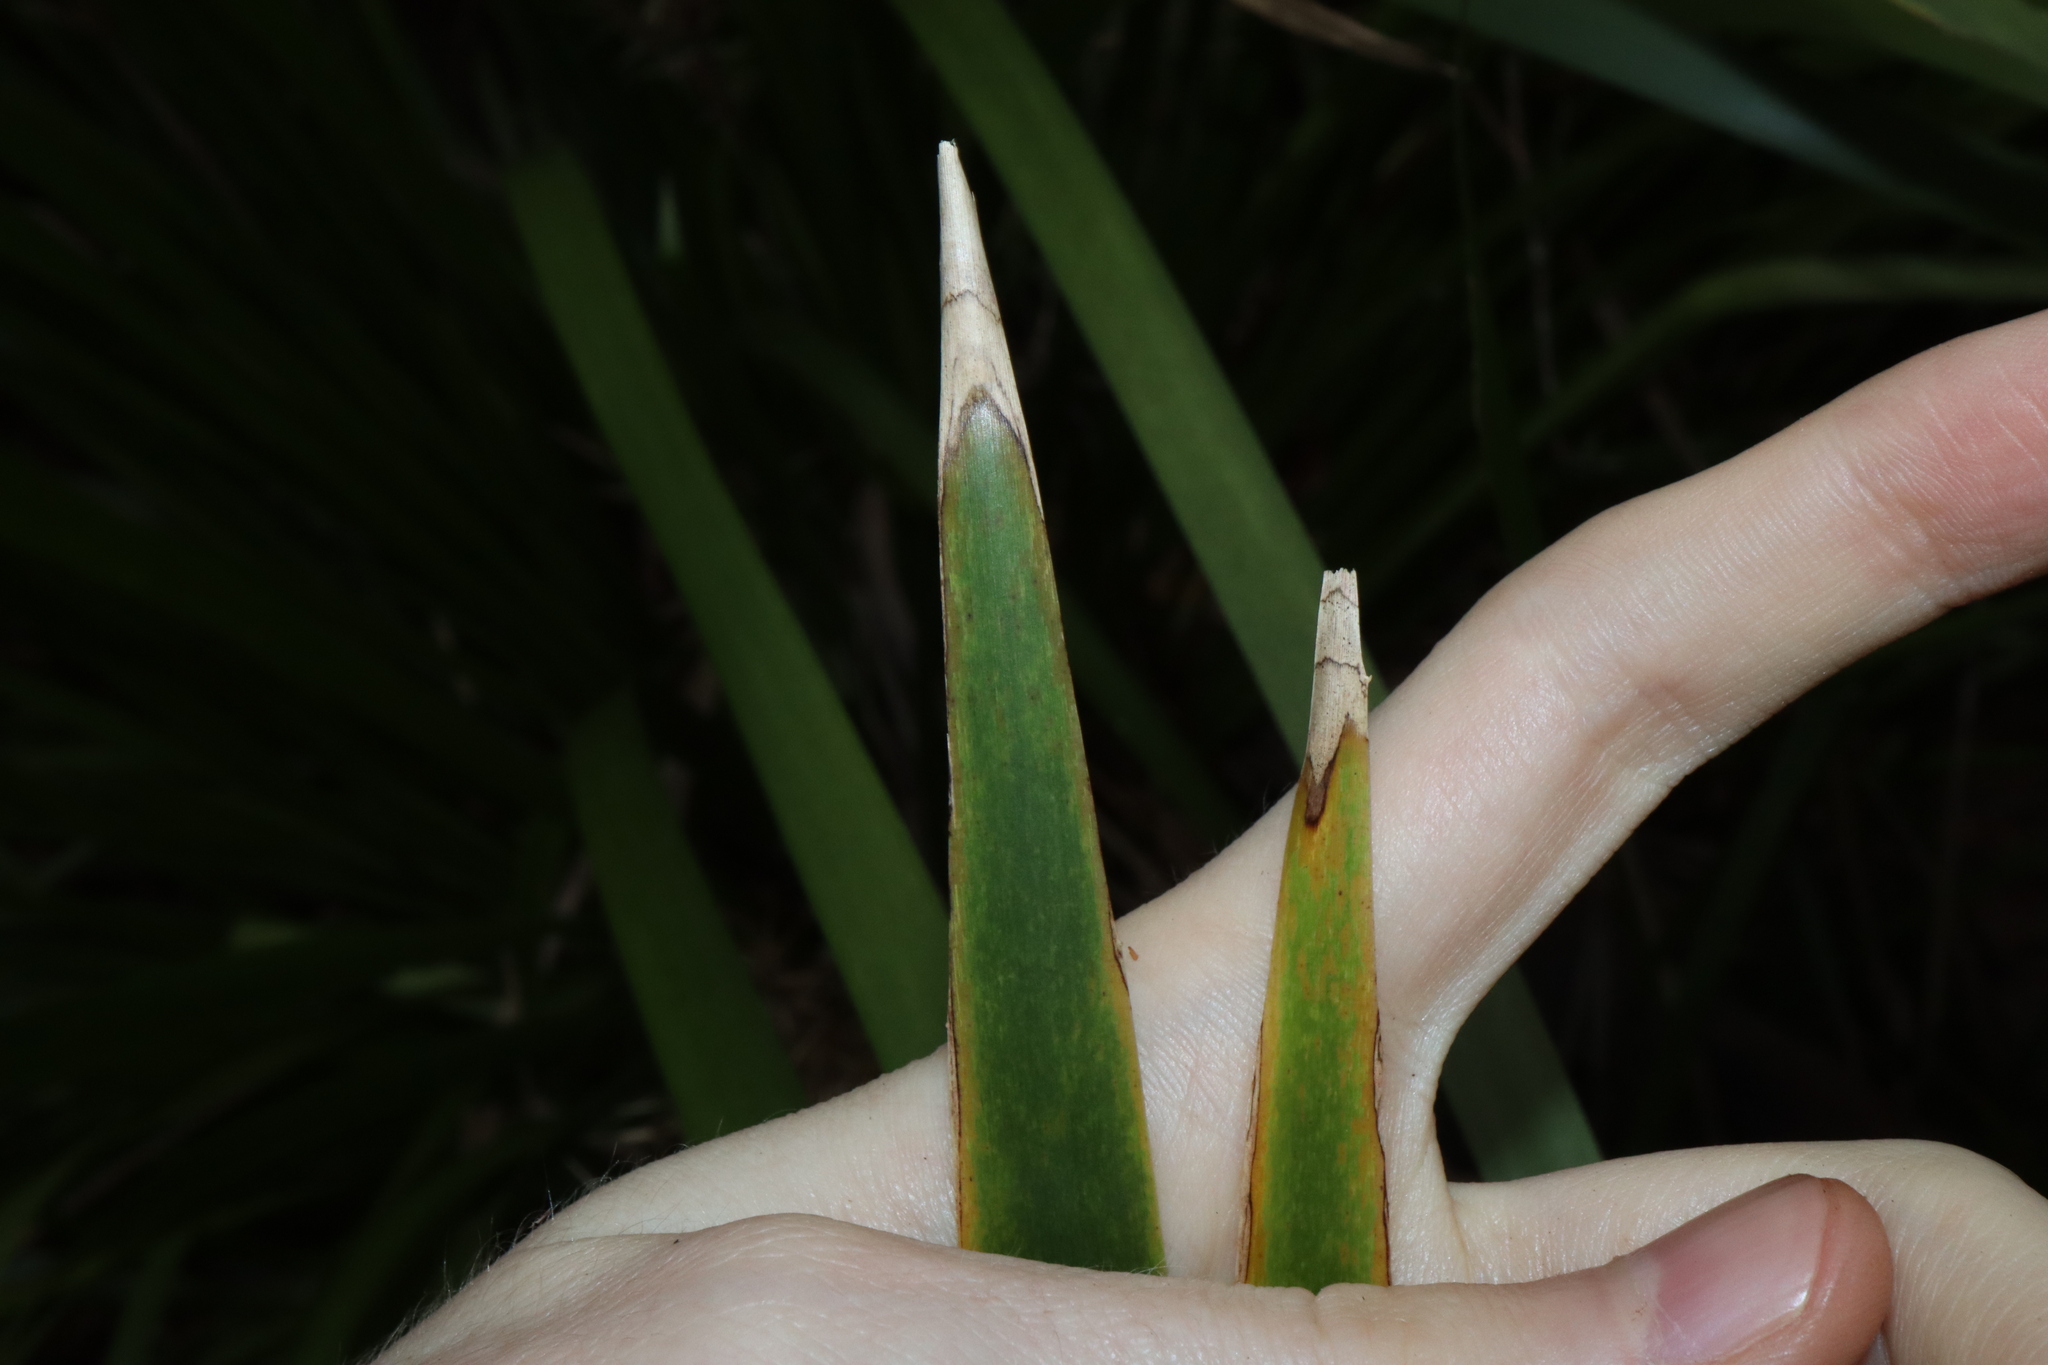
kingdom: Plantae
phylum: Tracheophyta
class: Liliopsida
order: Asparagales
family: Asparagaceae
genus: Lomandra
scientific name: Lomandra hystrix
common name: Creek mat-rush
